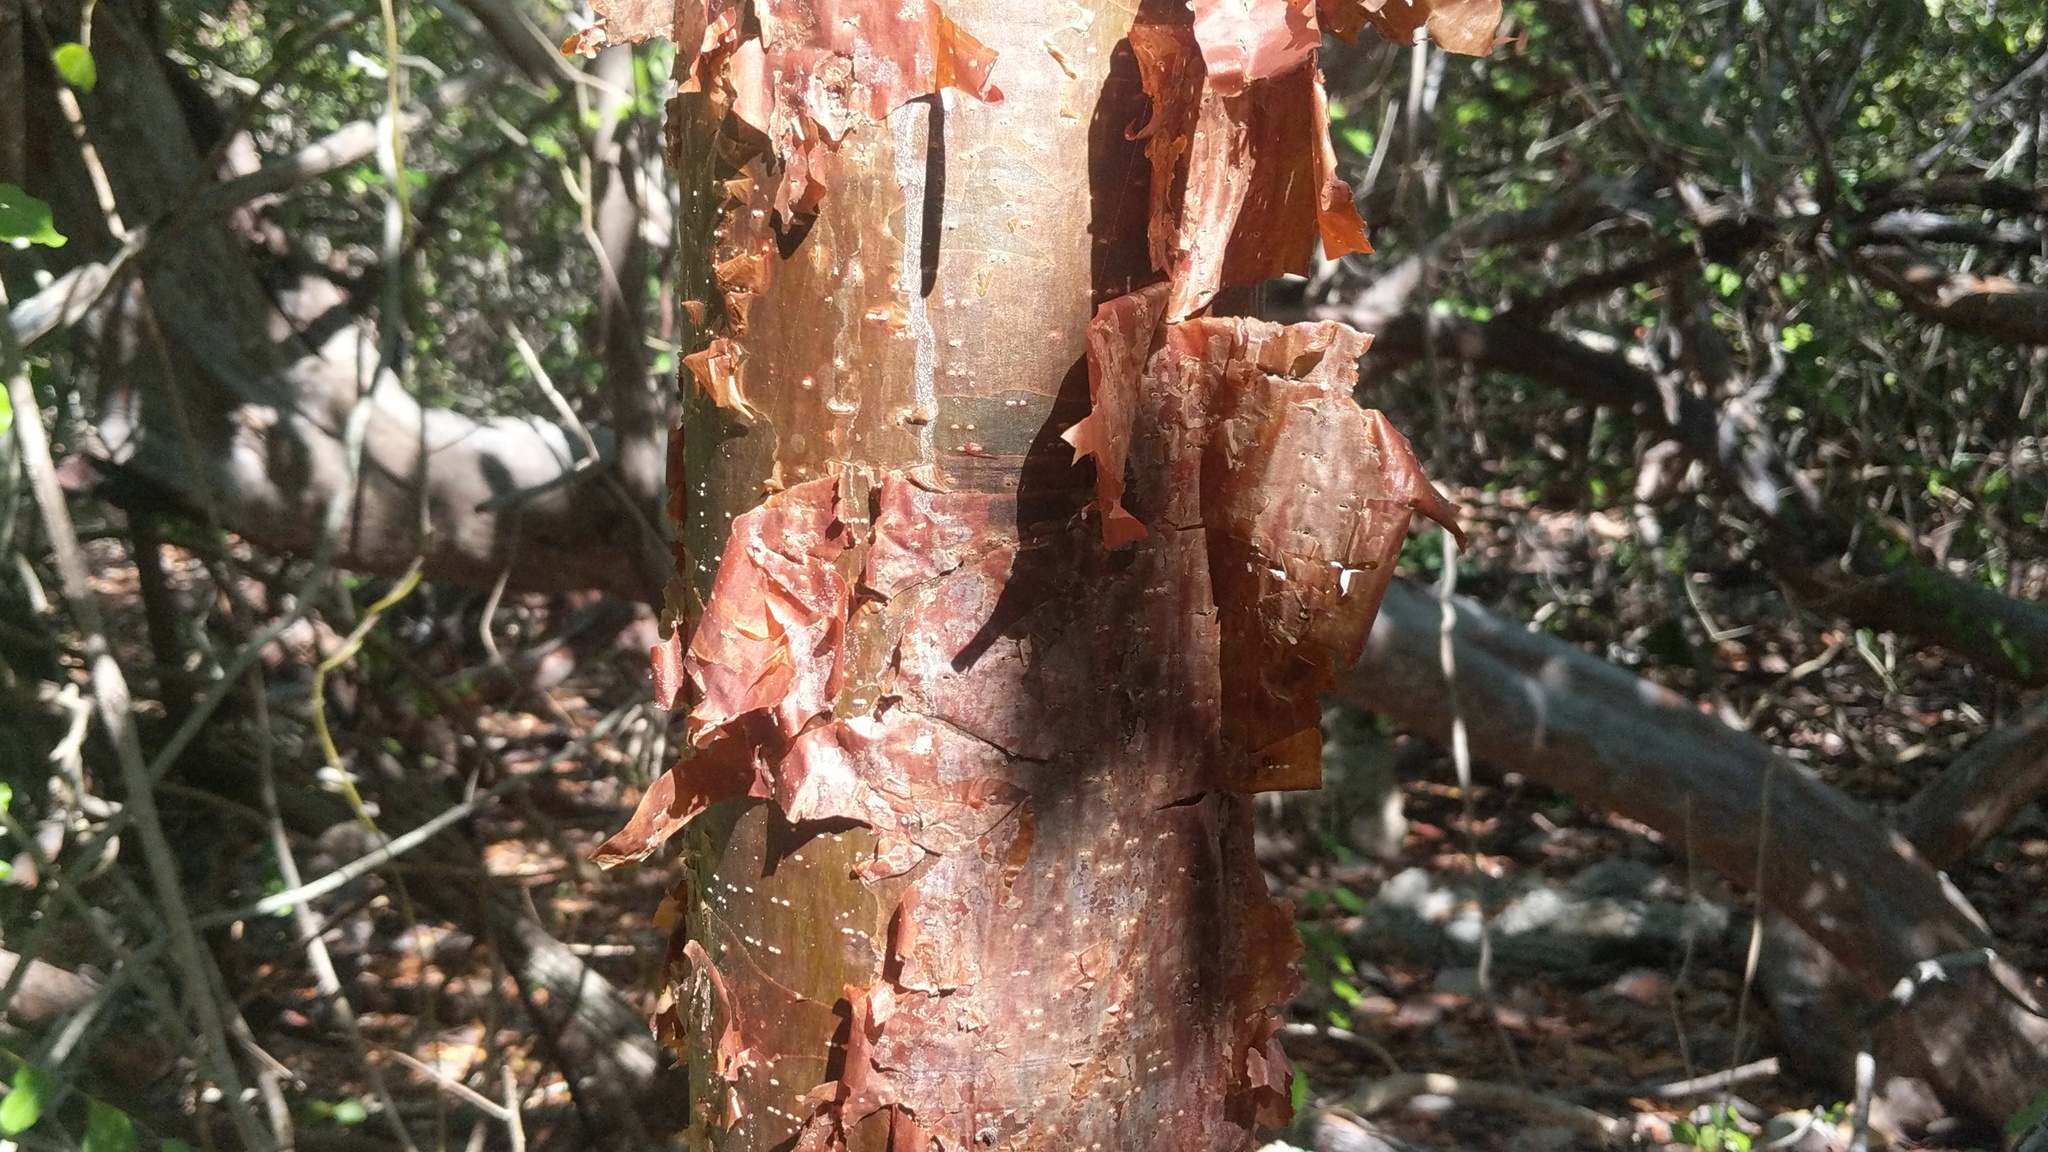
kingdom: Plantae
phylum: Tracheophyta
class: Magnoliopsida
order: Sapindales
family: Burseraceae
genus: Bursera
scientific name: Bursera simaruba
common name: Turpentine tree
